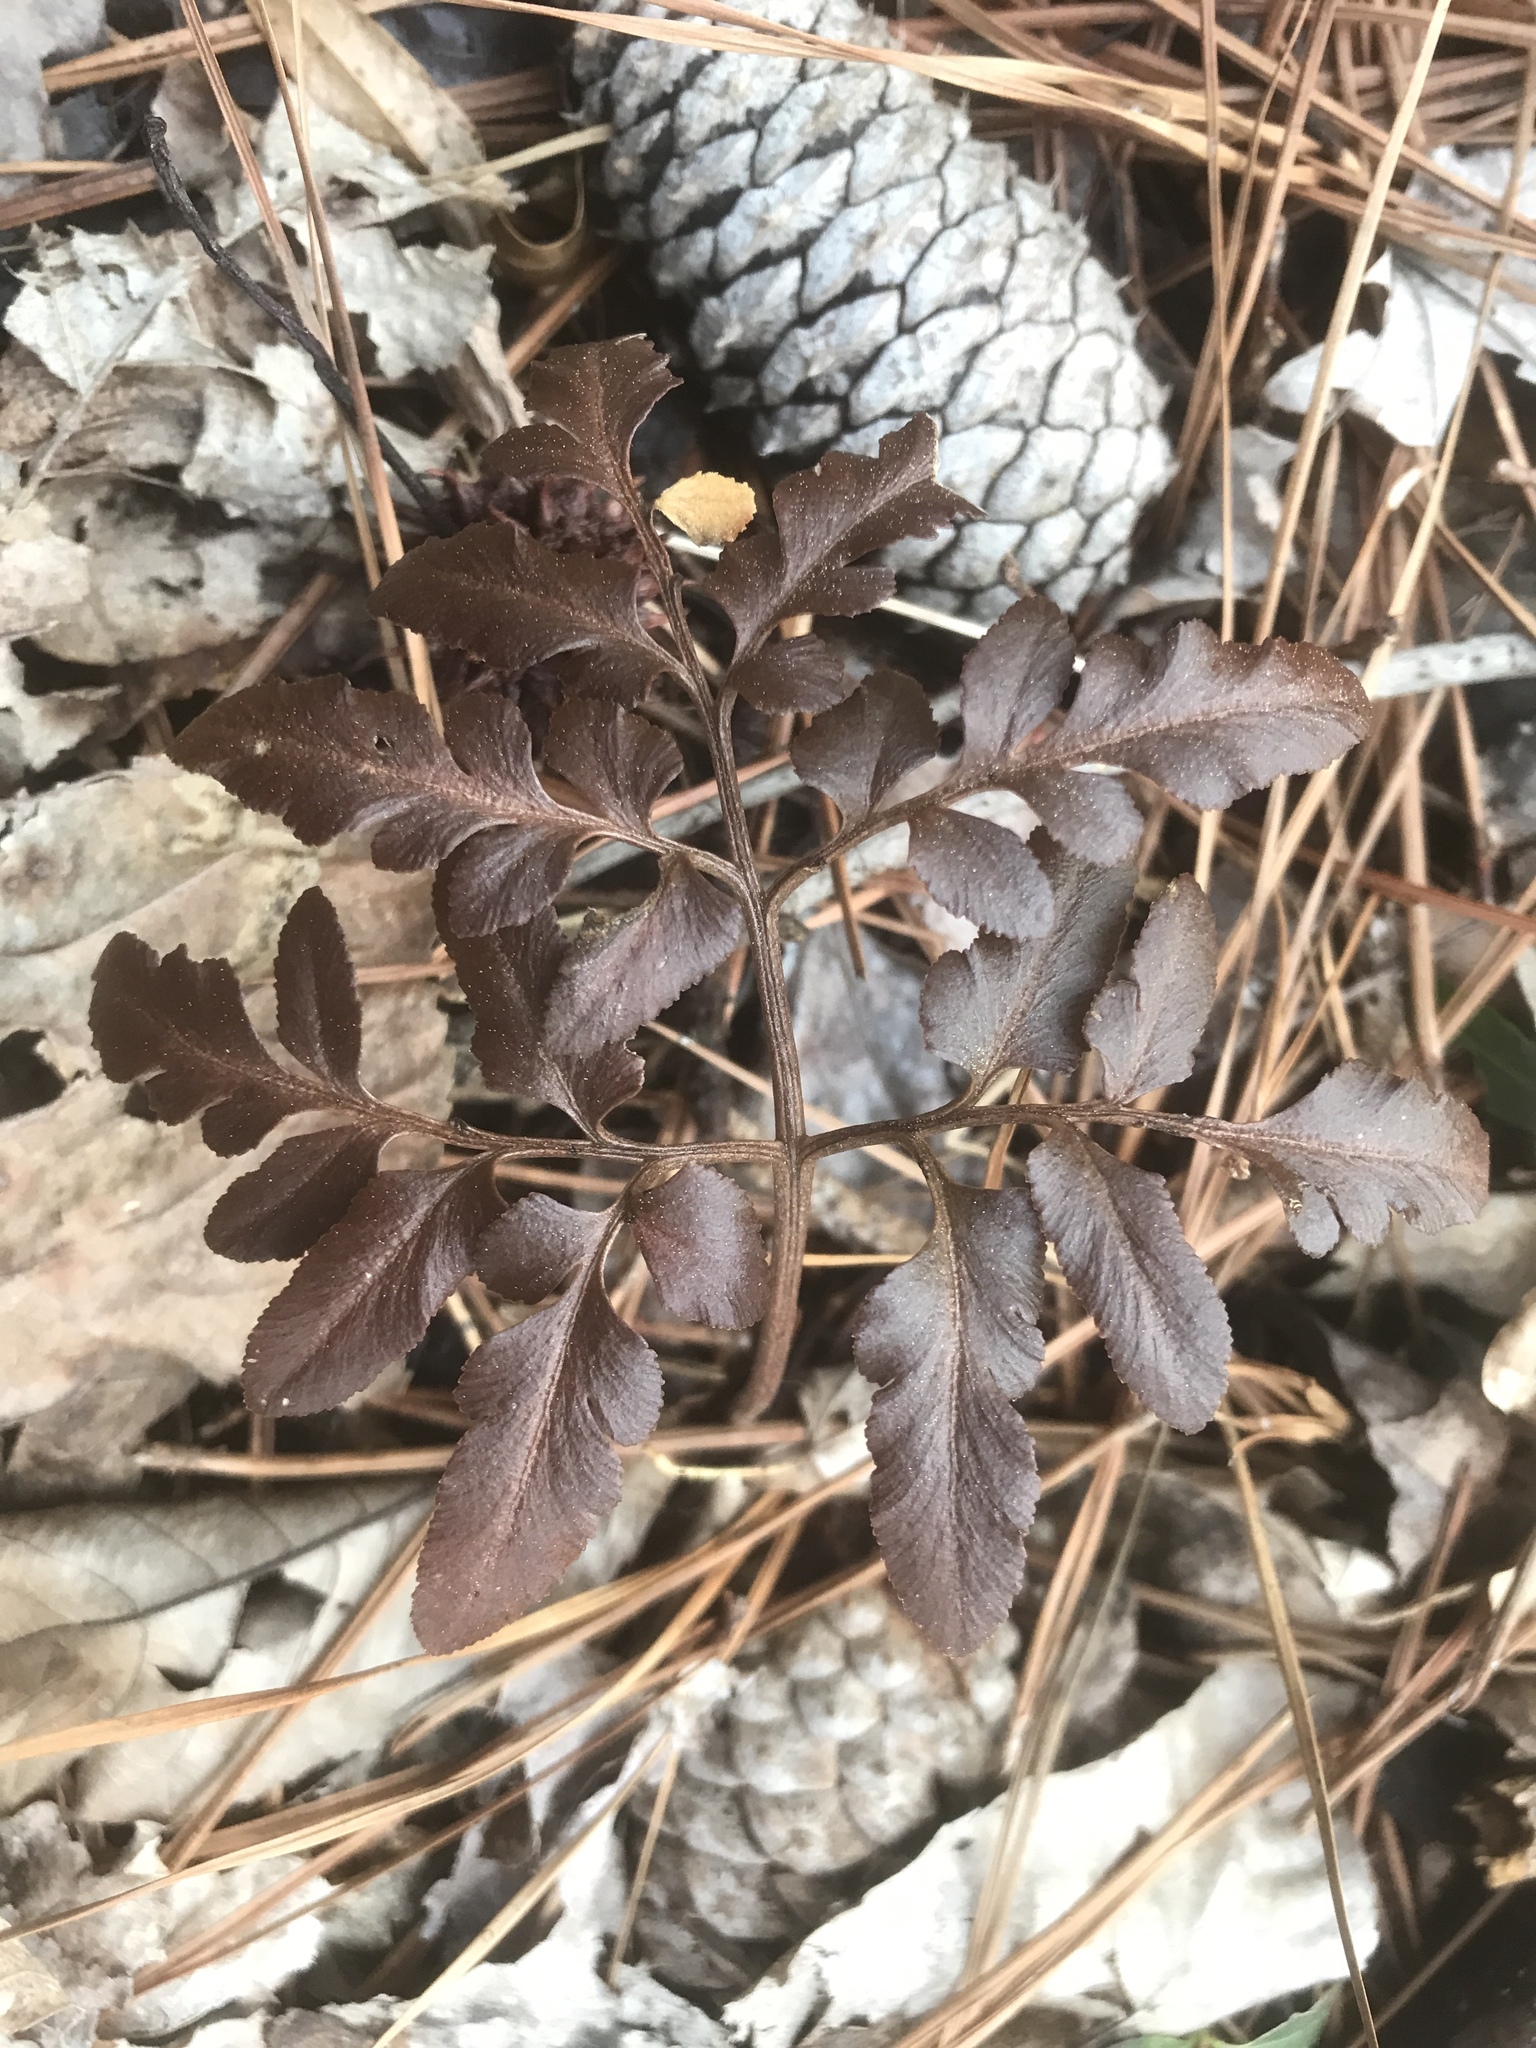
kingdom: Plantae
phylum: Tracheophyta
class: Polypodiopsida
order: Ophioglossales
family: Ophioglossaceae
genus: Sceptridium
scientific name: Sceptridium dissectum
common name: Cut-leaved grapefern
